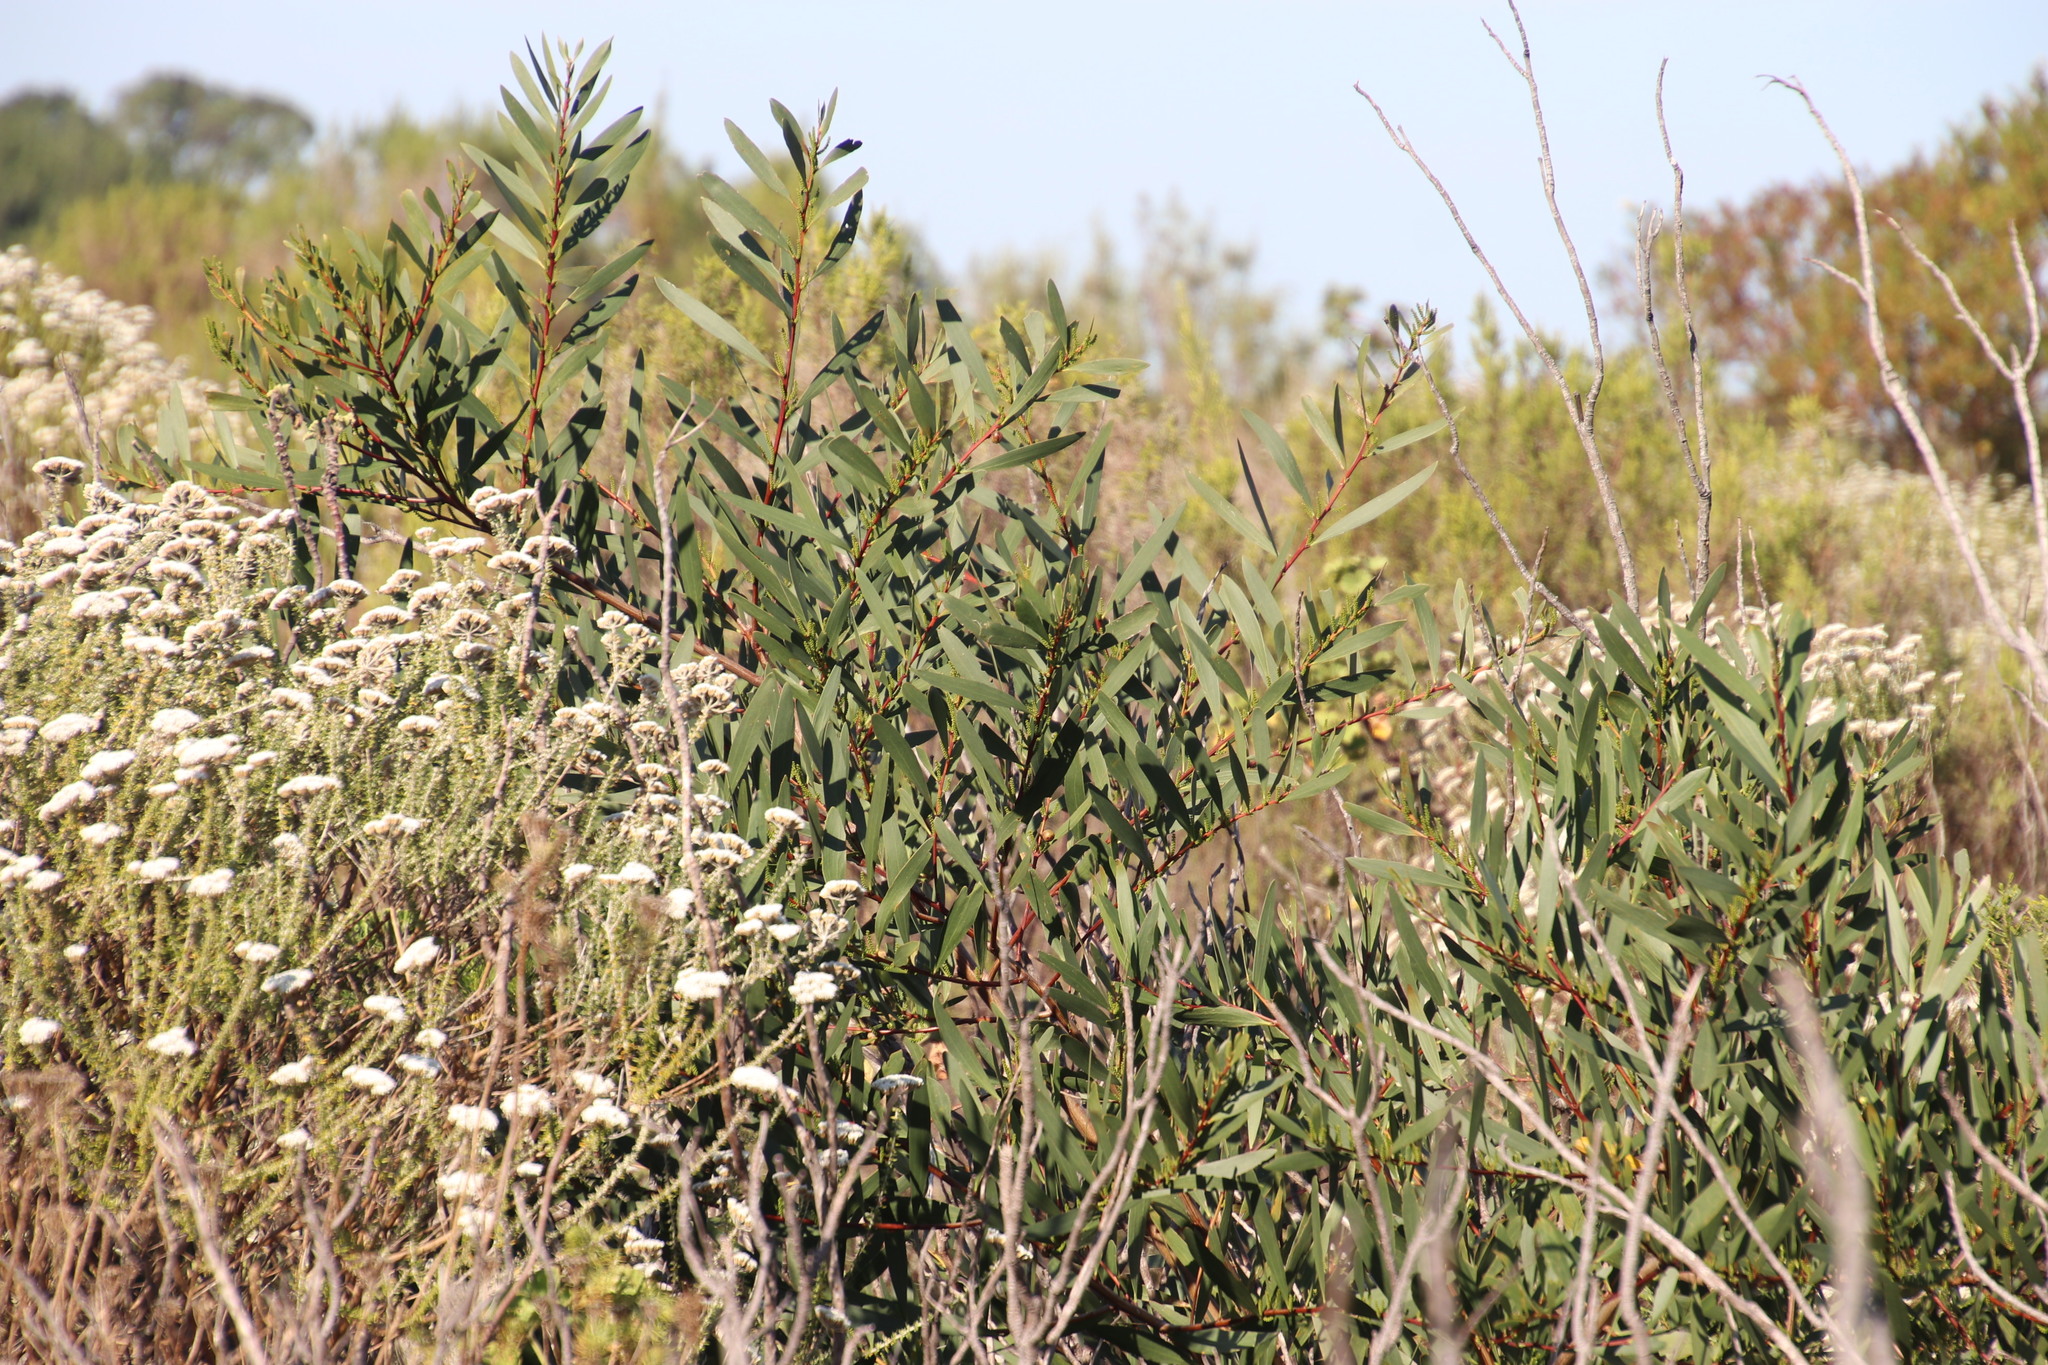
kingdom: Plantae
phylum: Tracheophyta
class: Magnoliopsida
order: Fabales
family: Fabaceae
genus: Acacia
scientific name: Acacia longifolia
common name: Sydney golden wattle
